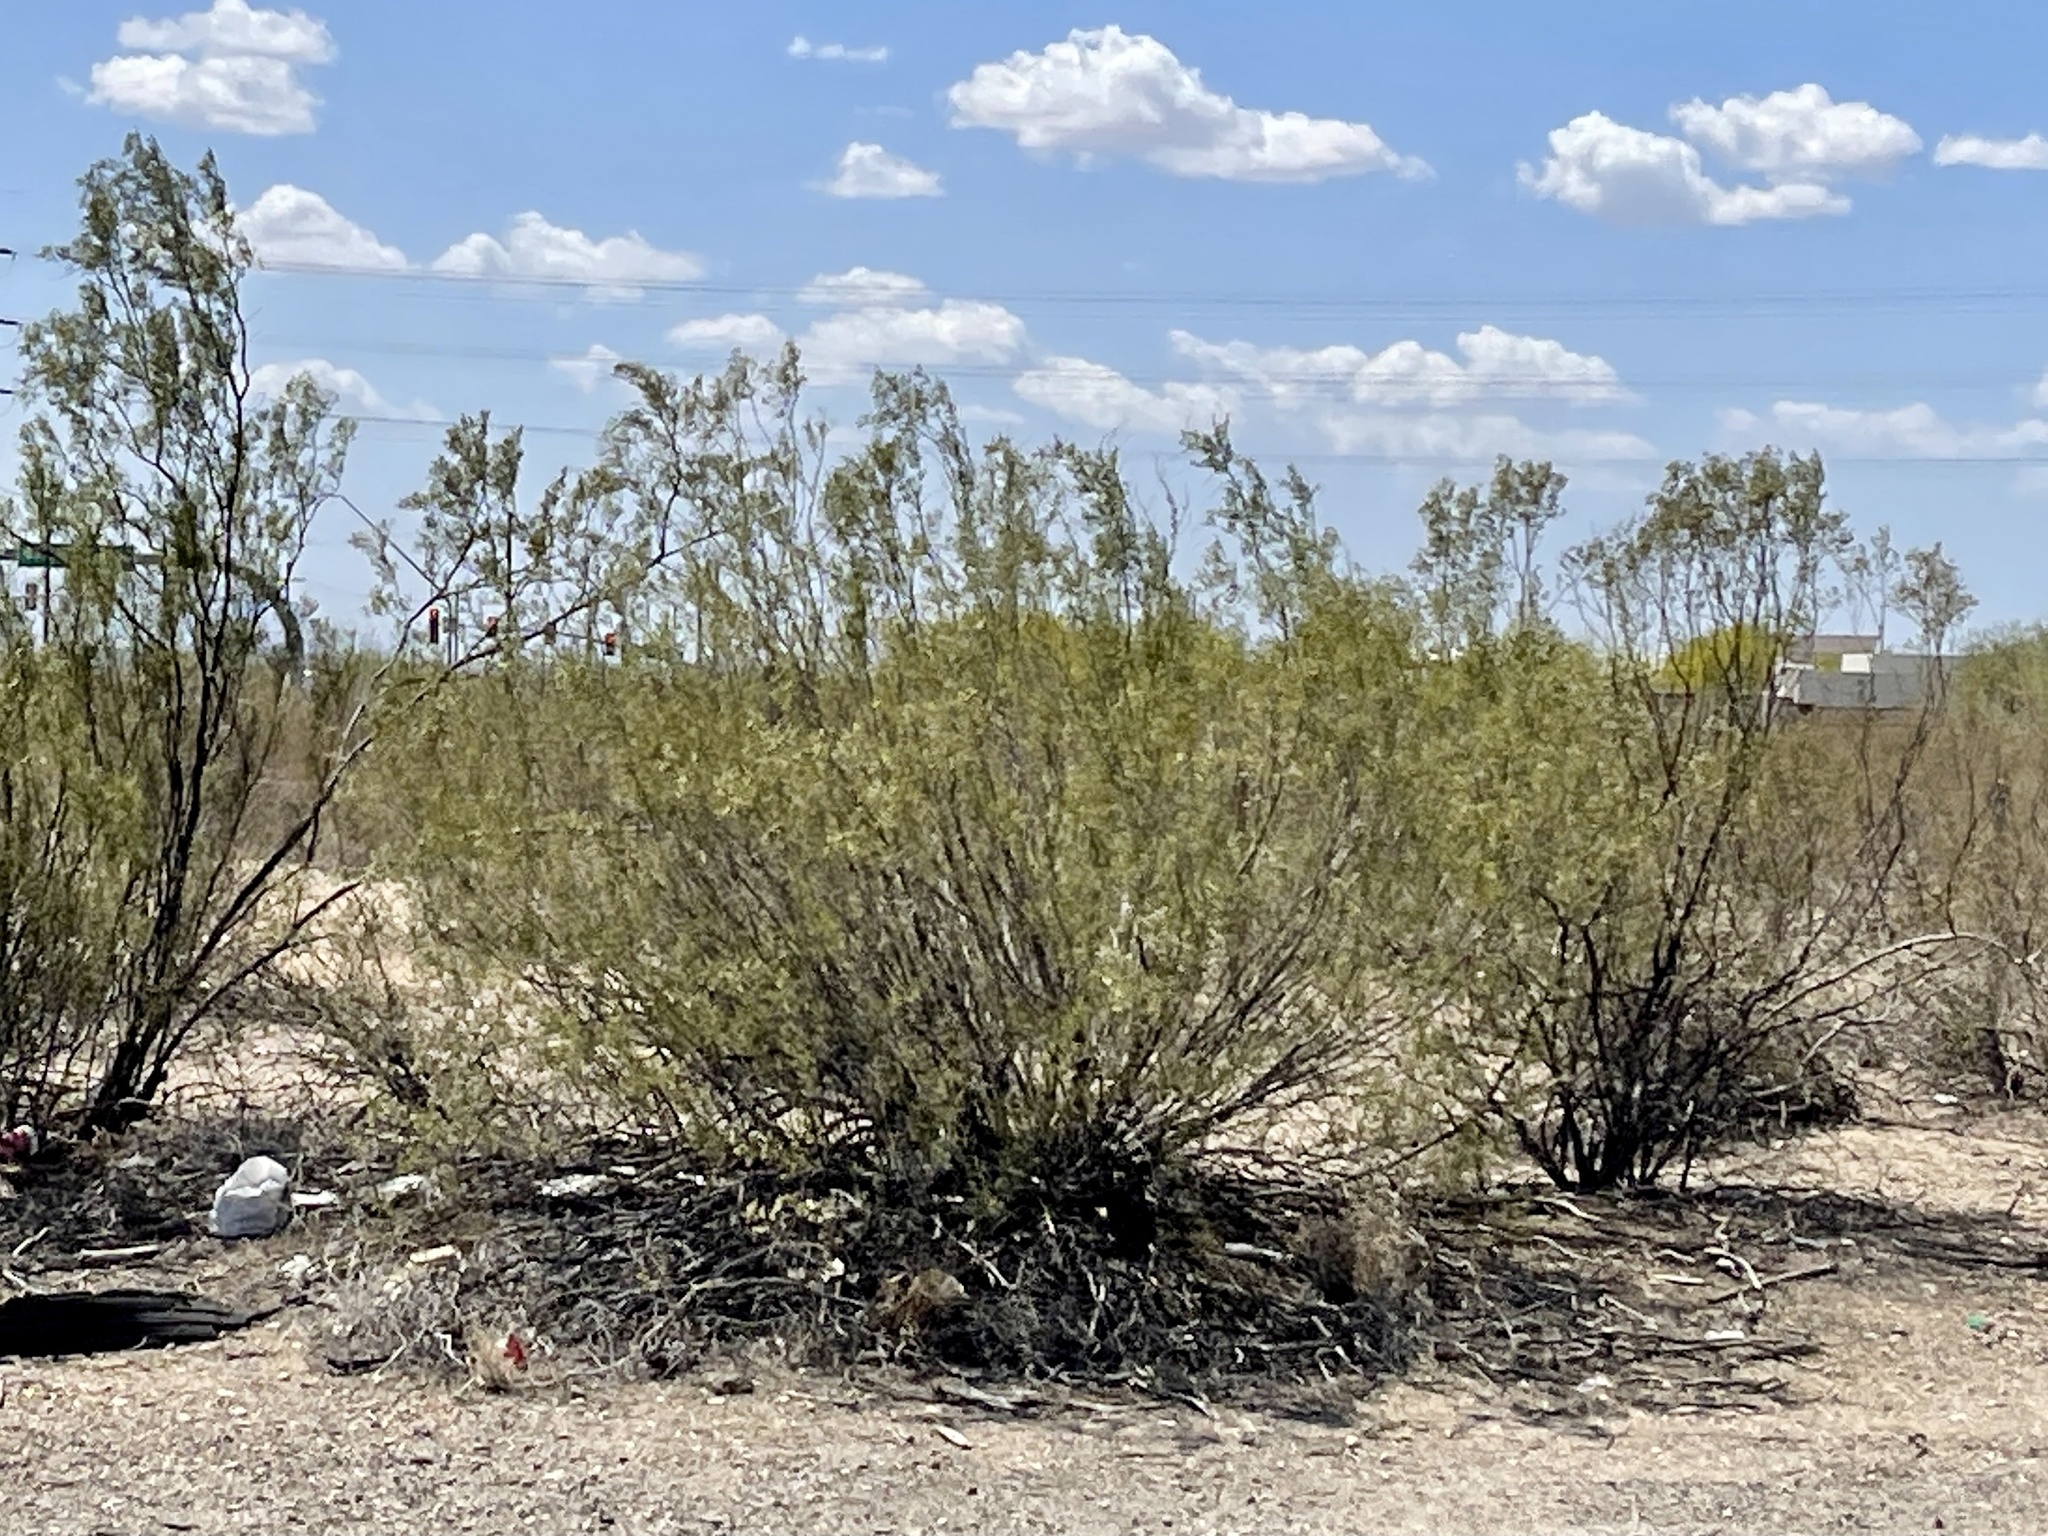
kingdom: Plantae
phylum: Tracheophyta
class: Magnoliopsida
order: Zygophyllales
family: Zygophyllaceae
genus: Larrea
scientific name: Larrea tridentata
